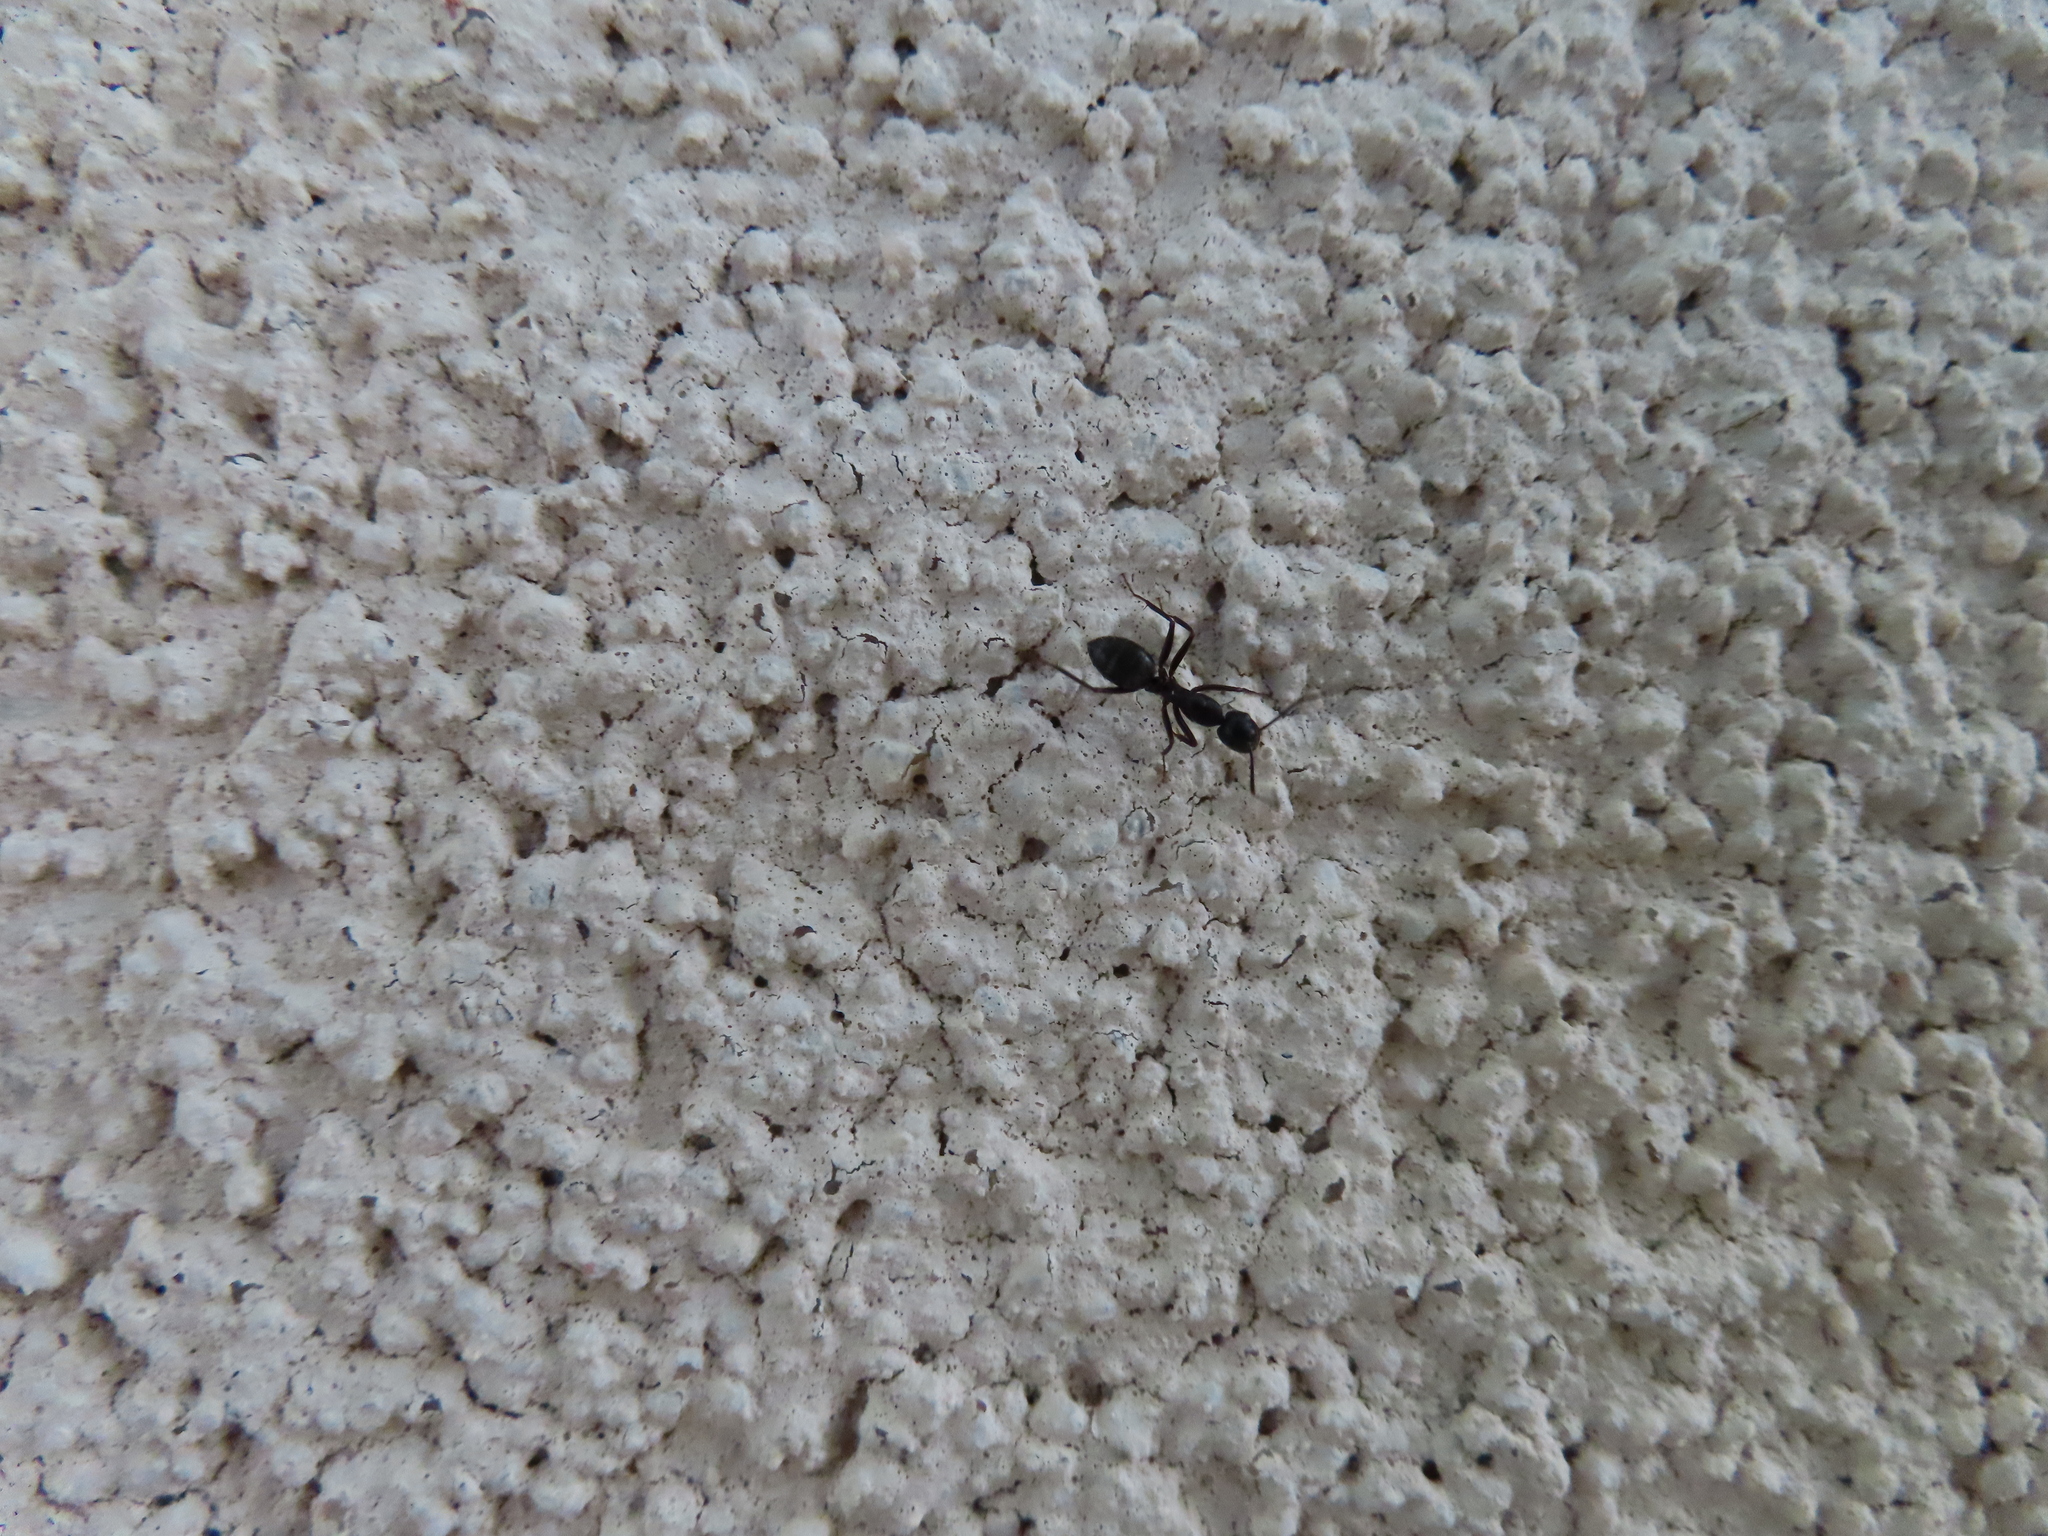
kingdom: Animalia
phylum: Arthropoda
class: Insecta
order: Hymenoptera
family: Formicidae
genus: Camponotus
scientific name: Camponotus pennsylvanicus
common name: Black carpenter ant
